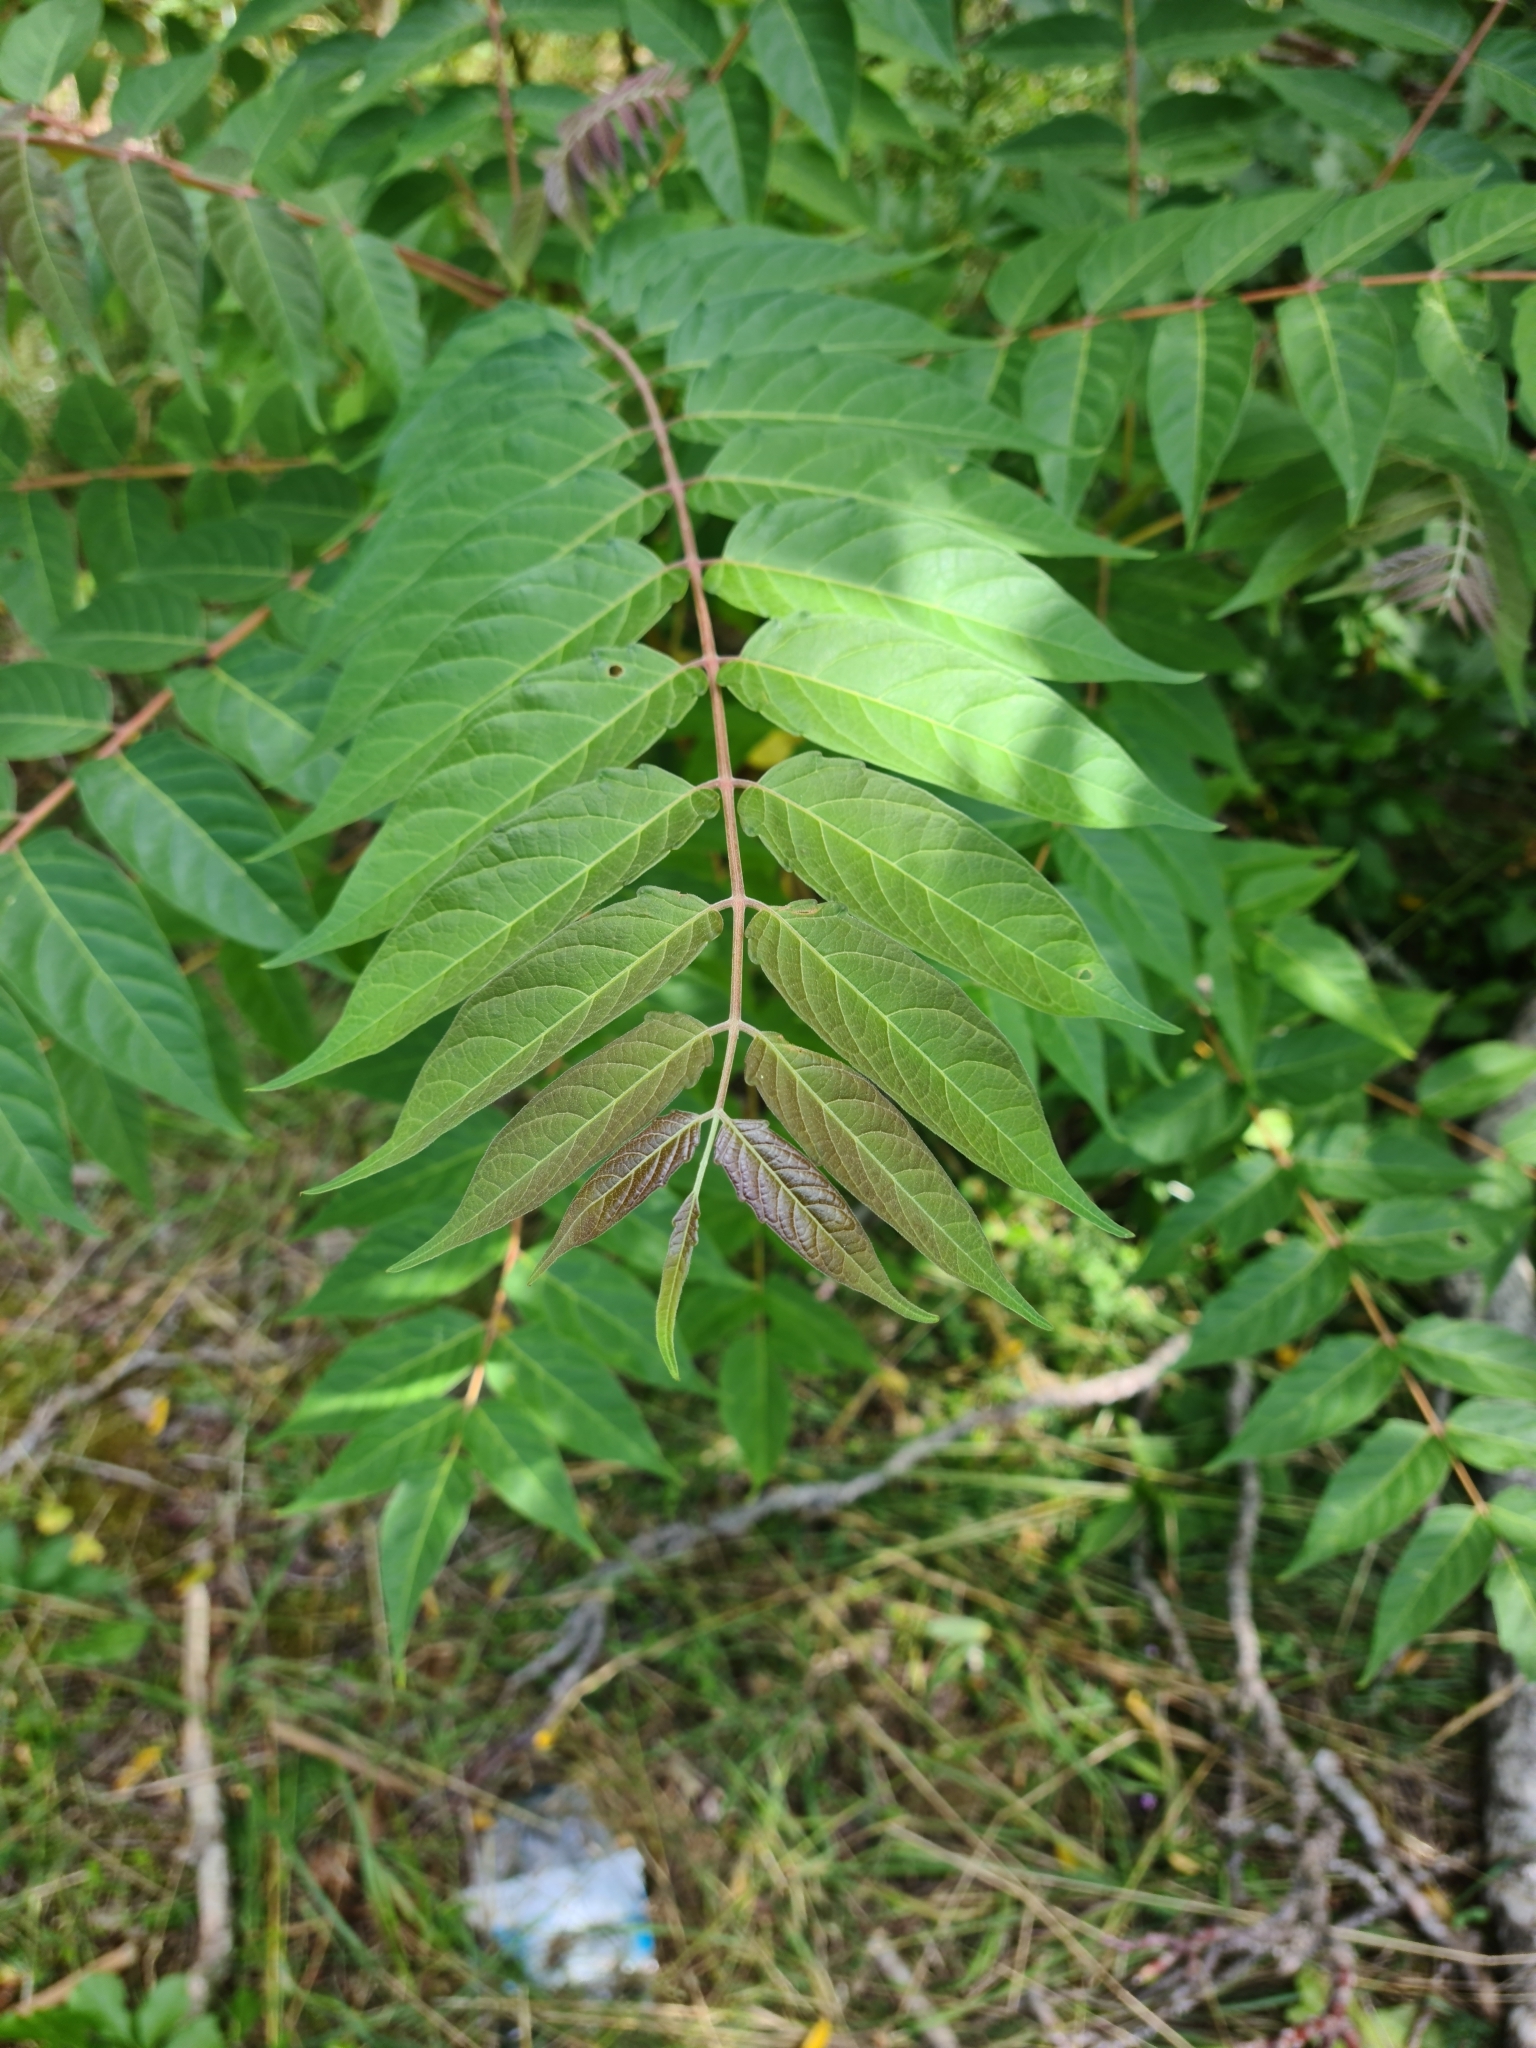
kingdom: Plantae
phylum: Tracheophyta
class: Magnoliopsida
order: Sapindales
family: Simaroubaceae
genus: Ailanthus
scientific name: Ailanthus altissima
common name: Tree-of-heaven
